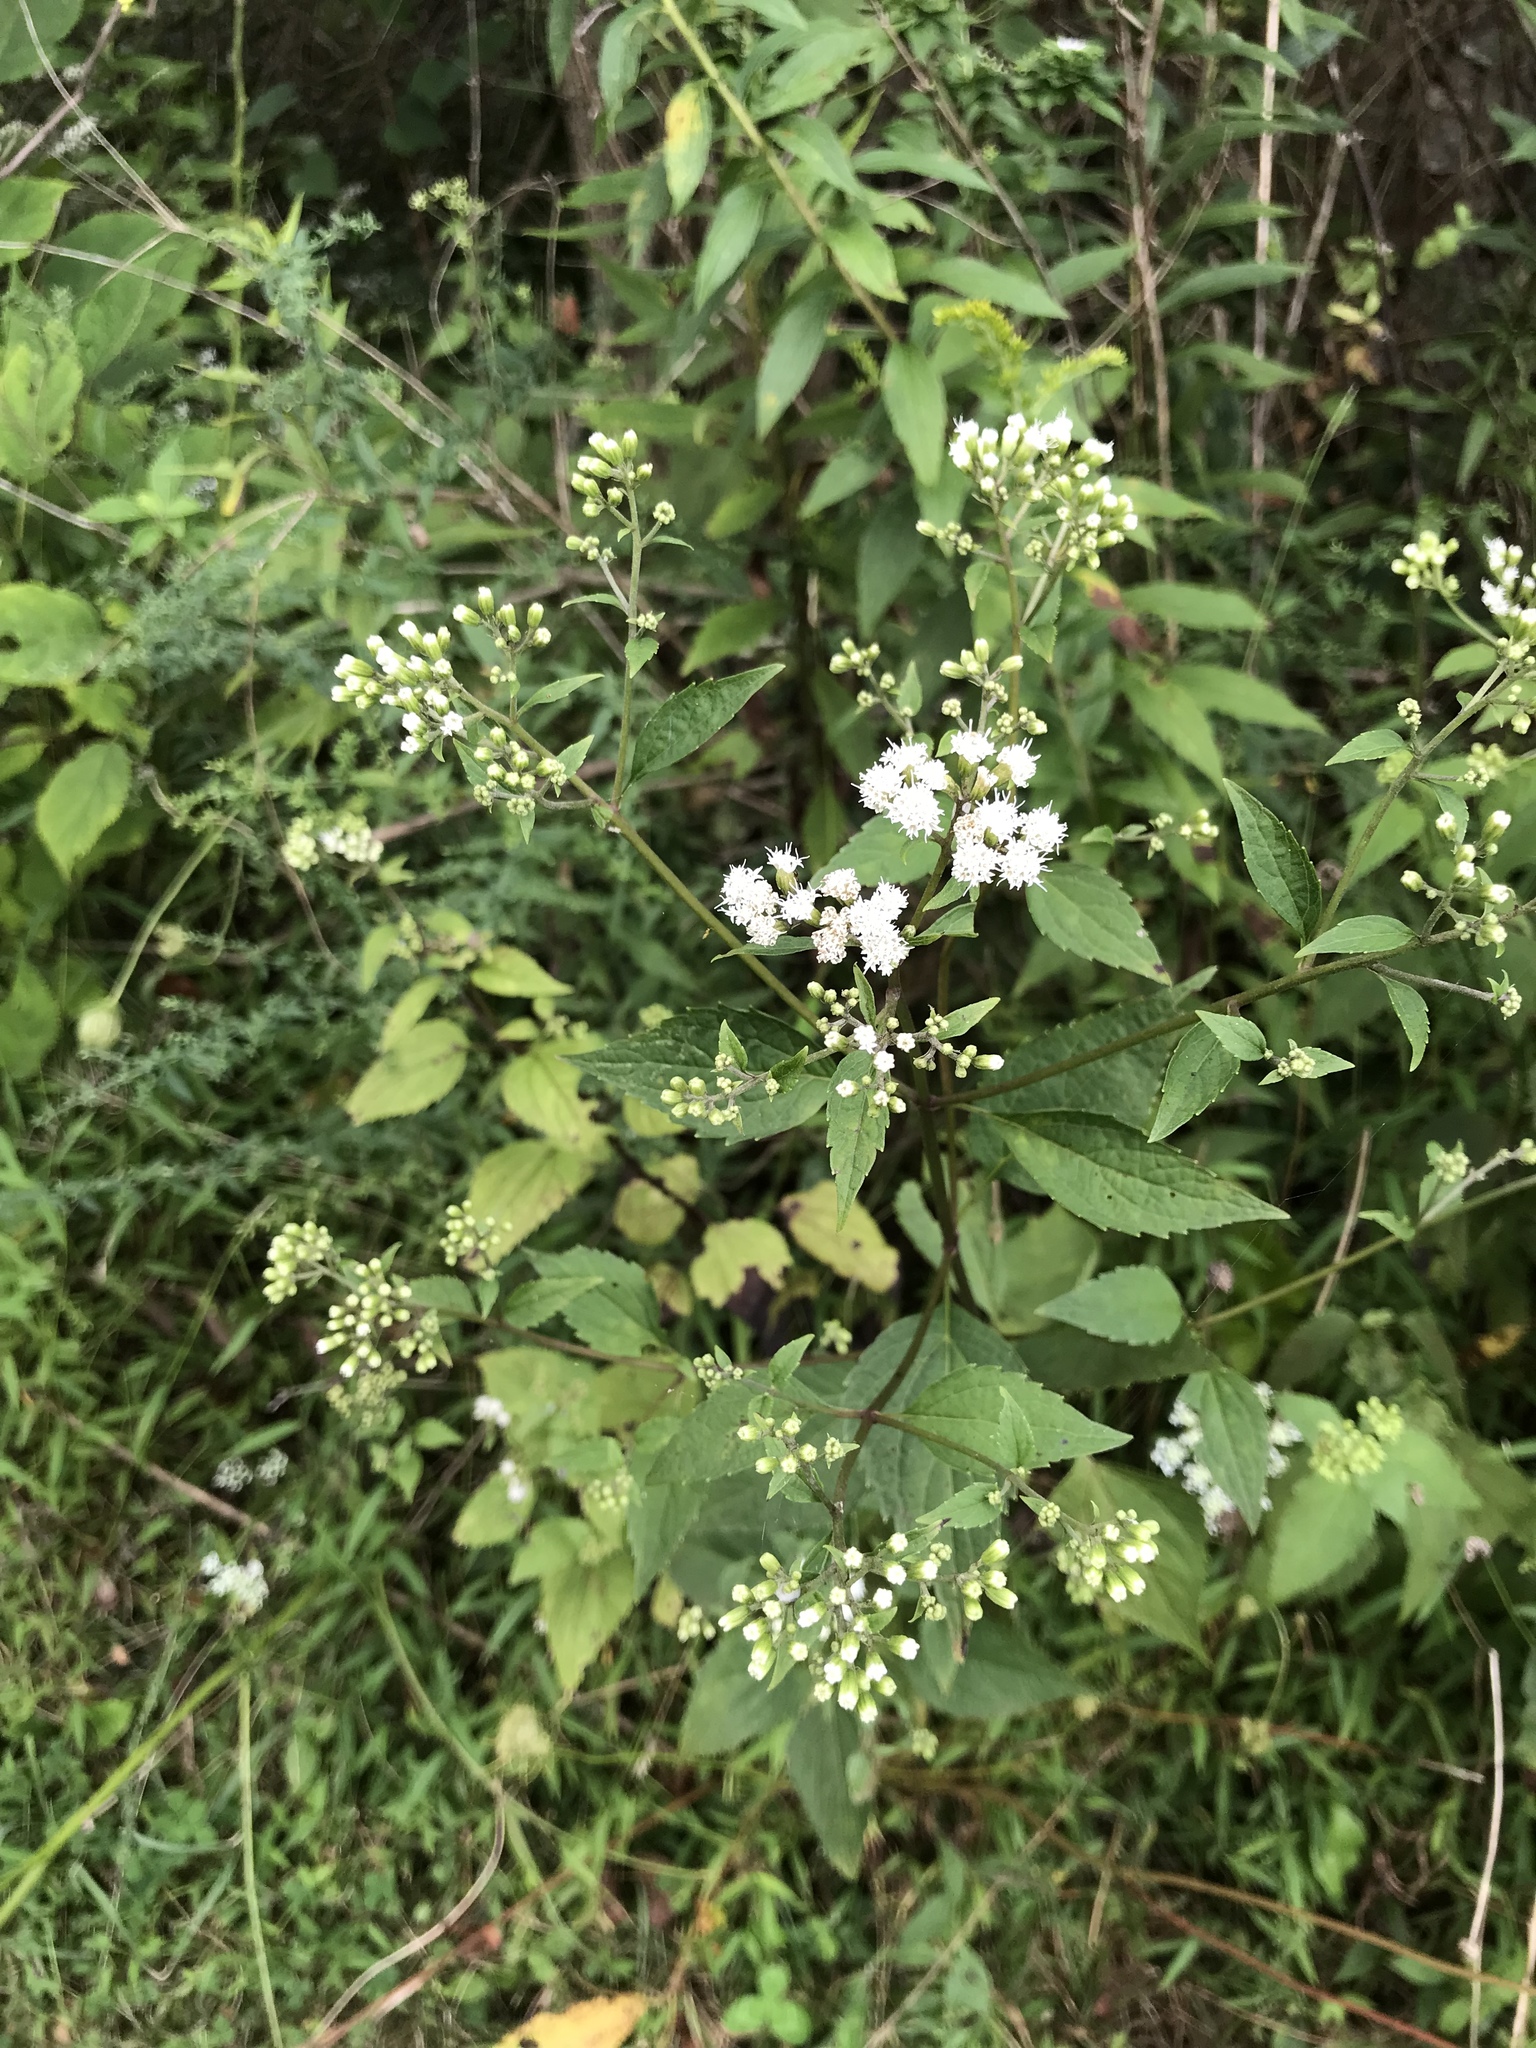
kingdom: Plantae
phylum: Tracheophyta
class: Magnoliopsida
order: Asterales
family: Asteraceae
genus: Ageratina
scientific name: Ageratina altissima
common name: White snakeroot
